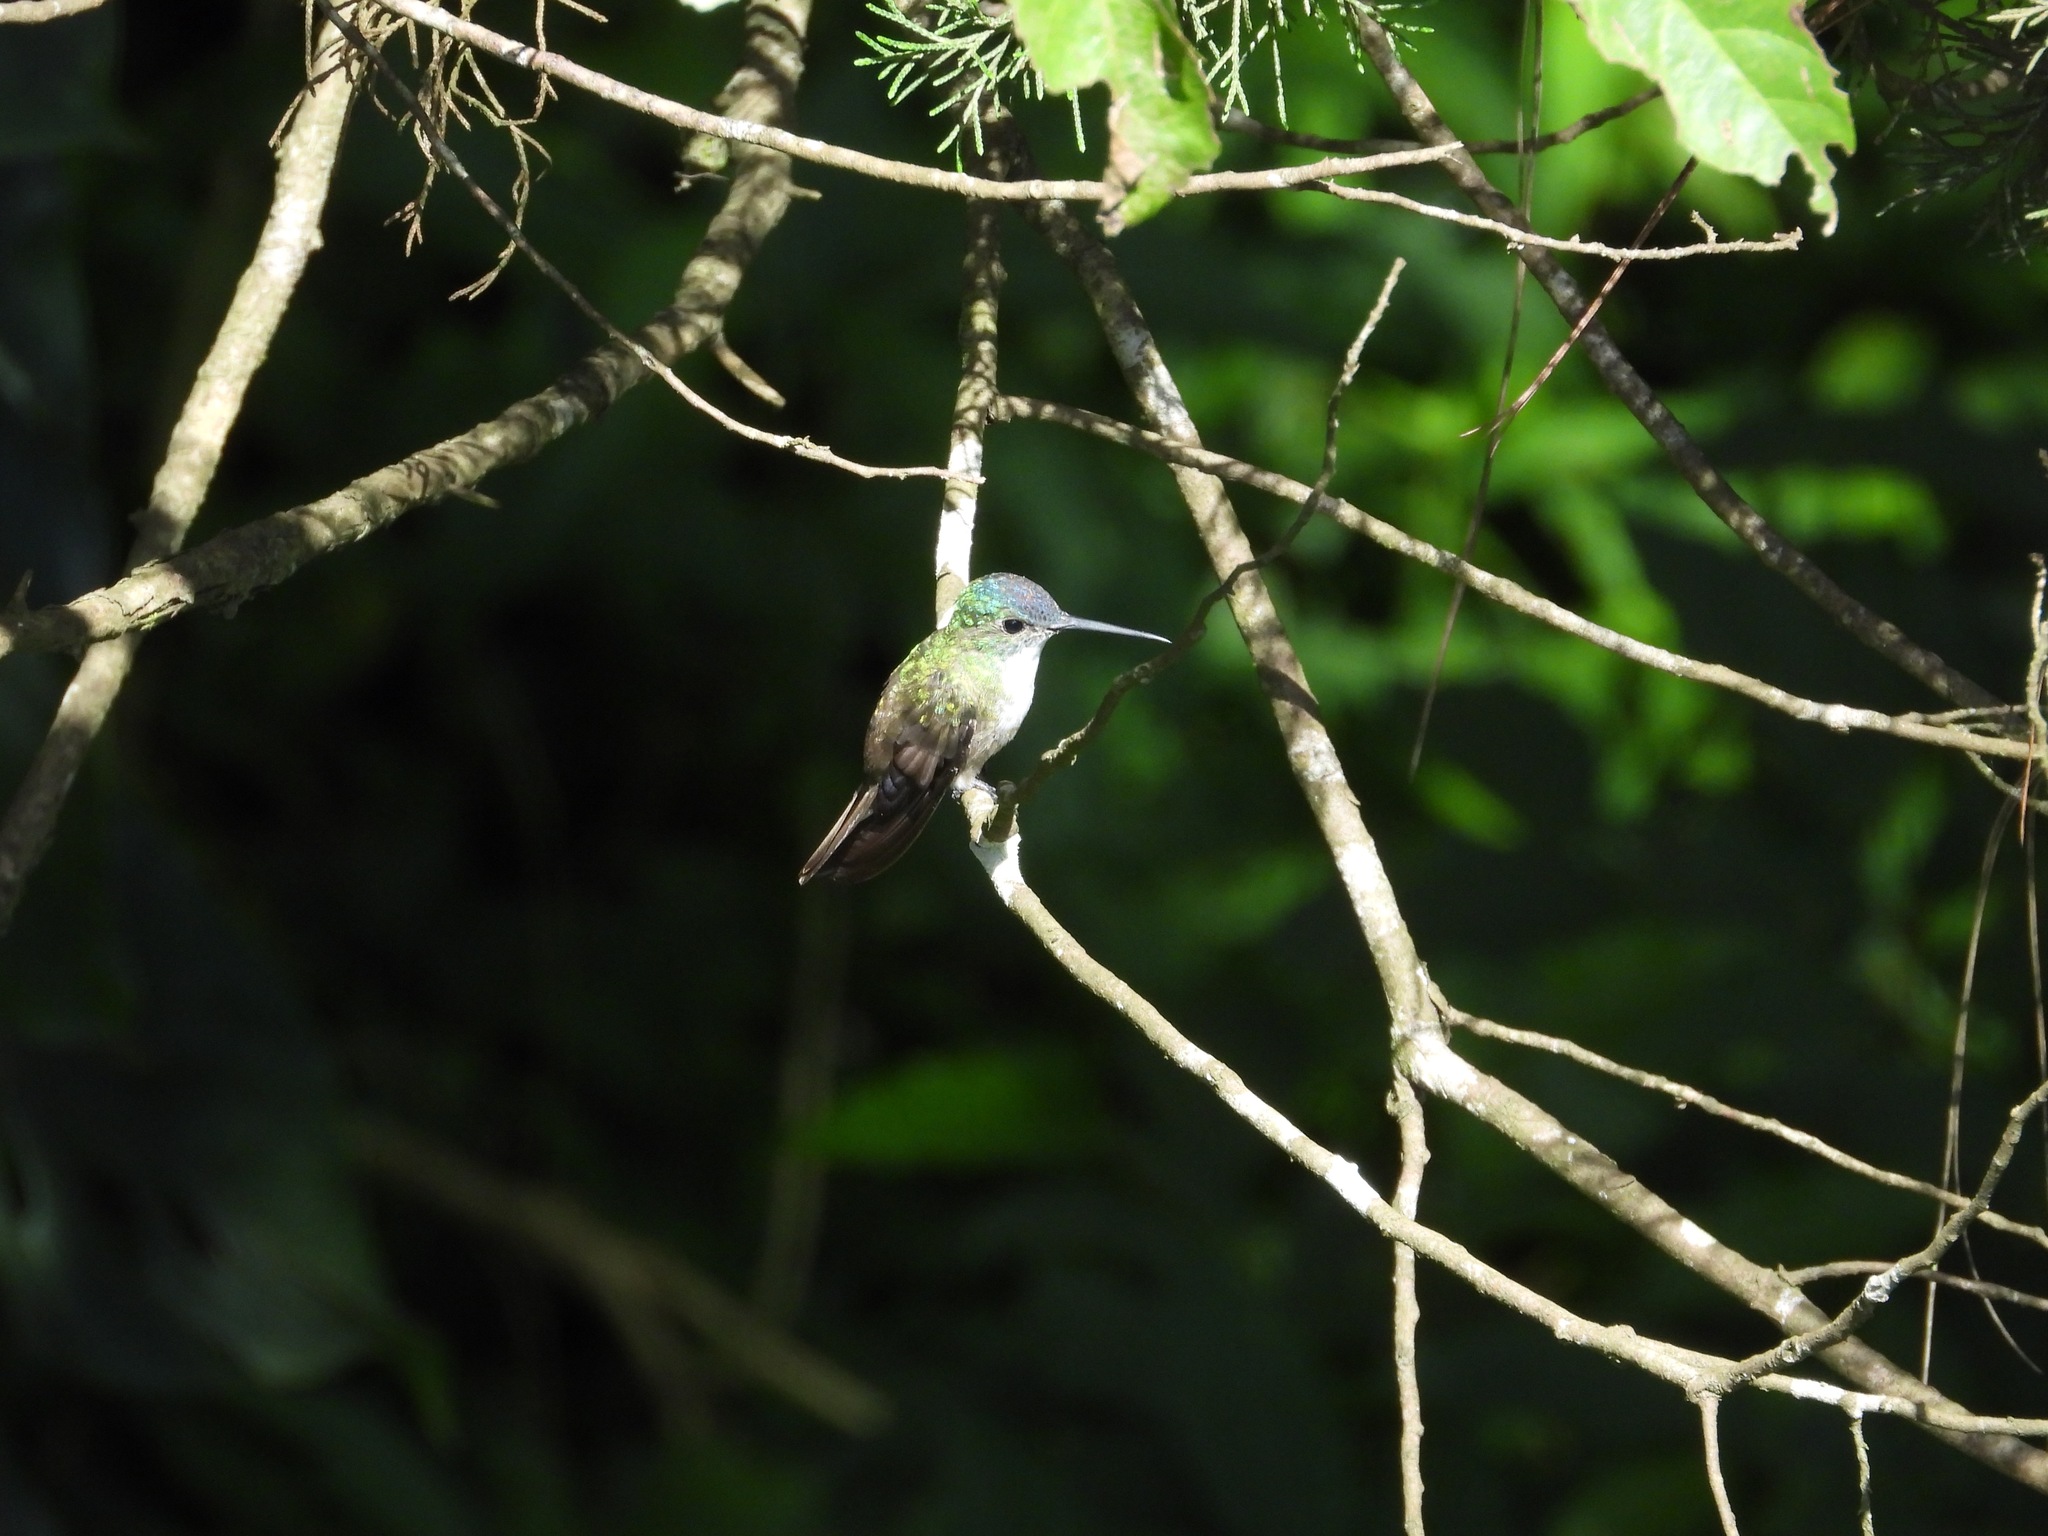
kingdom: Animalia
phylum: Chordata
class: Aves
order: Apodiformes
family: Trochilidae
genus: Saucerottia
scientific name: Saucerottia cyanocephala
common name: Azure-crowned hummingbird
